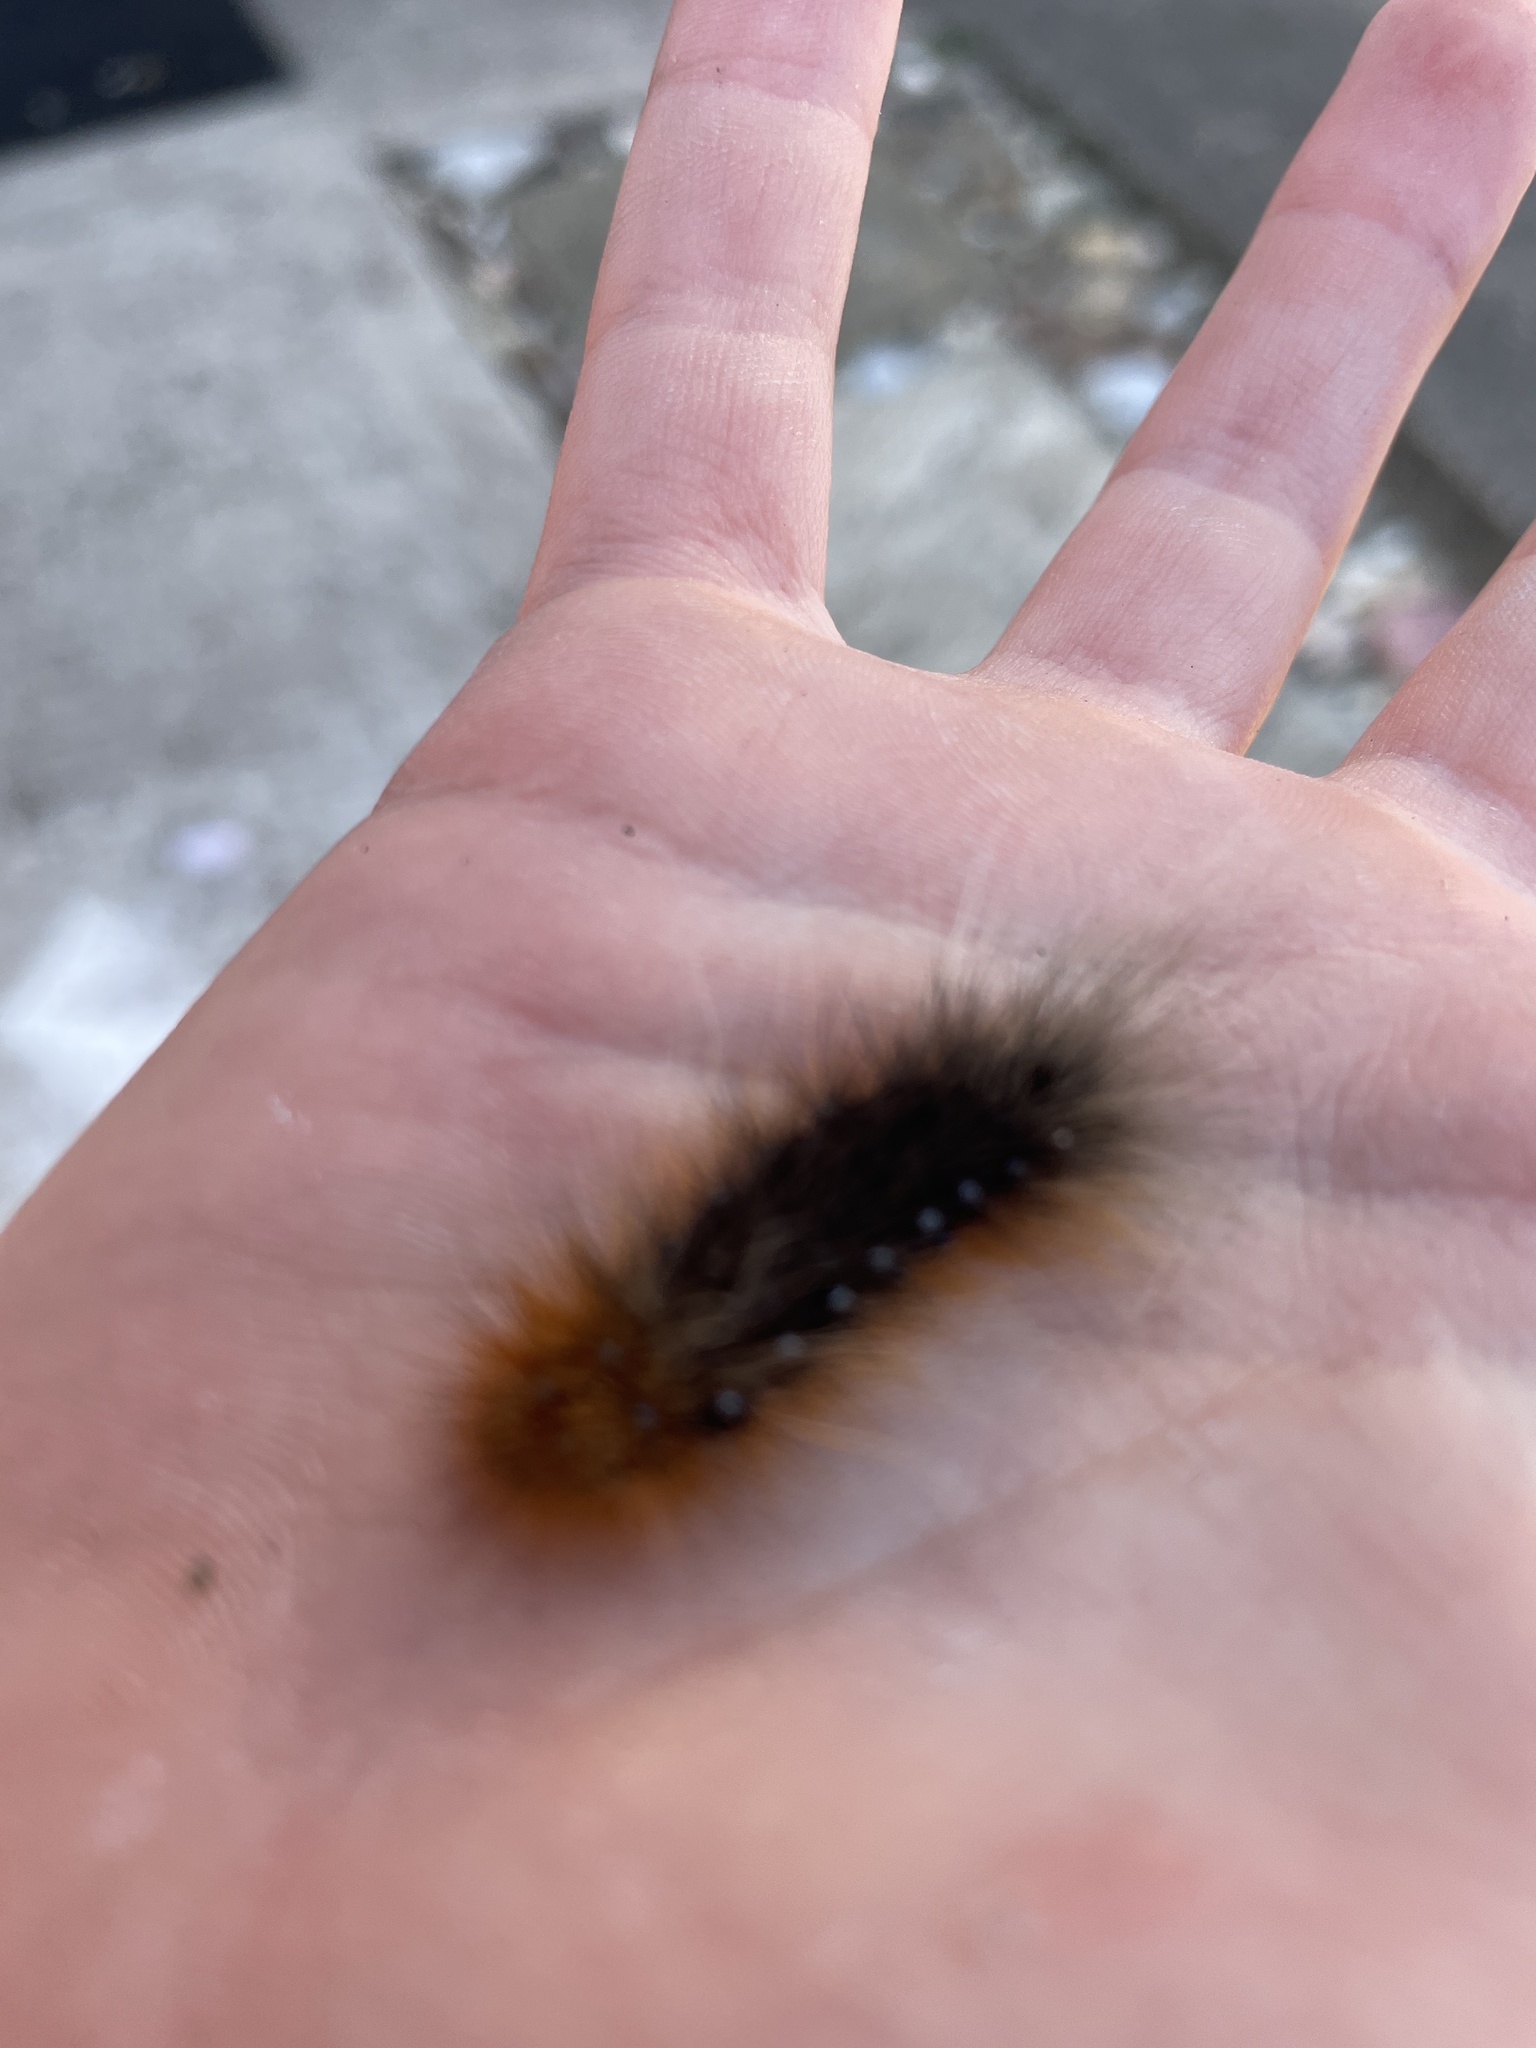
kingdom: Animalia
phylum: Arthropoda
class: Insecta
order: Lepidoptera
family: Erebidae
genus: Arctia
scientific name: Arctia caja
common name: Garden tiger
